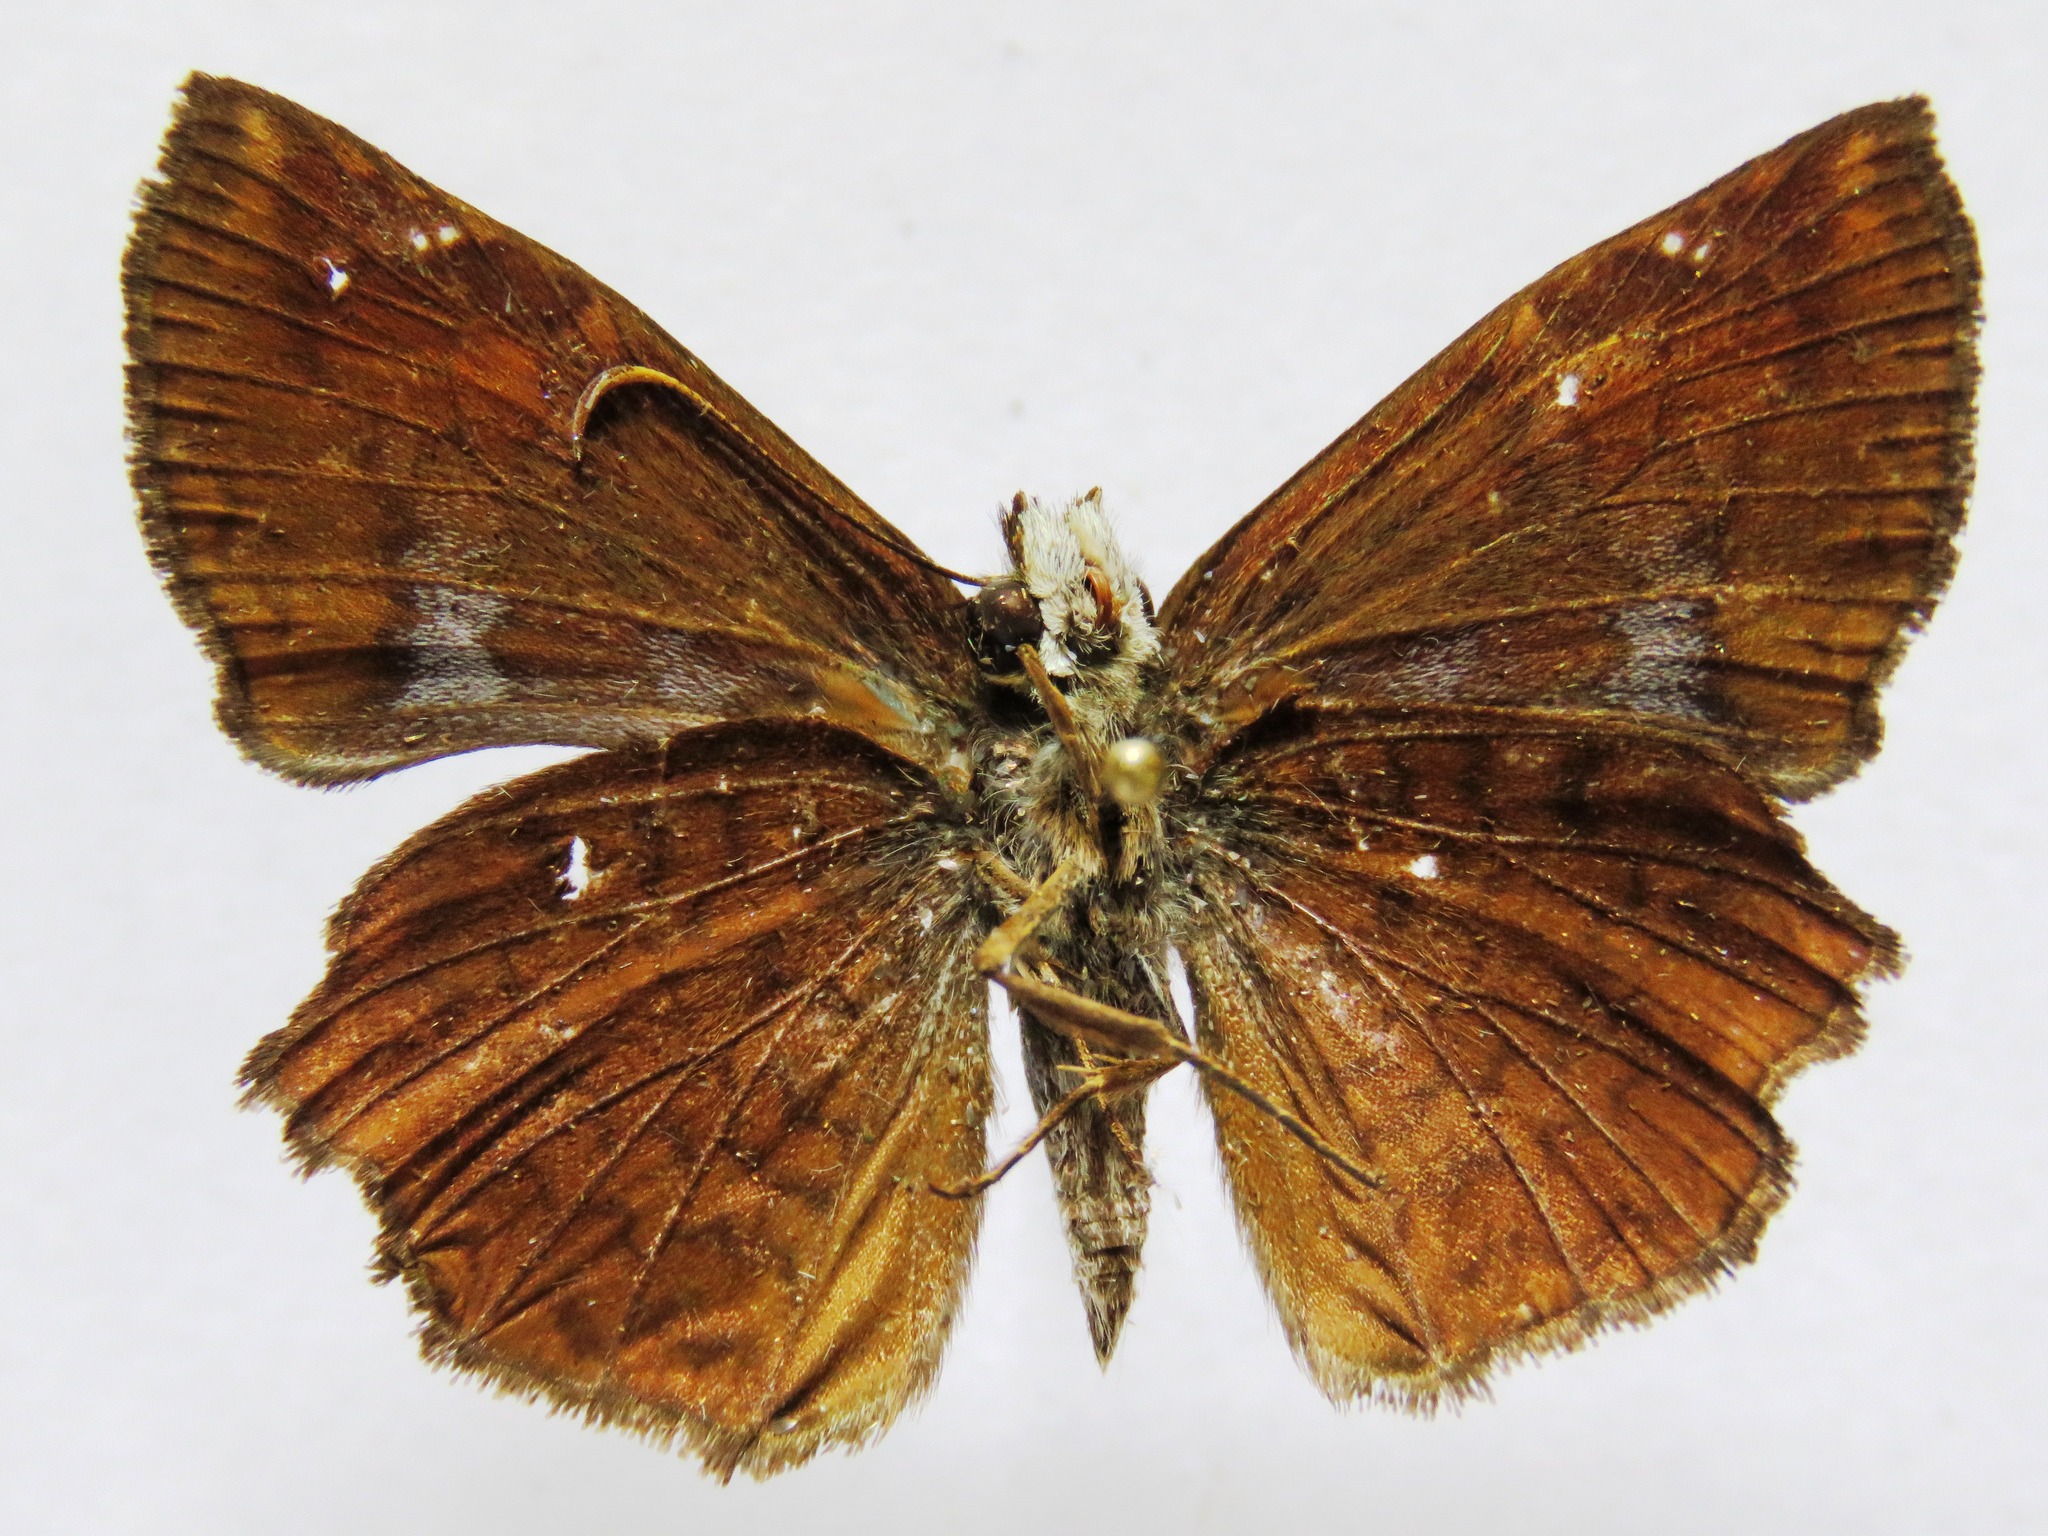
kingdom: Animalia
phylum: Arthropoda
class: Insecta
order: Lepidoptera
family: Hesperiidae
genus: Antigonus
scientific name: Antigonus erosus
